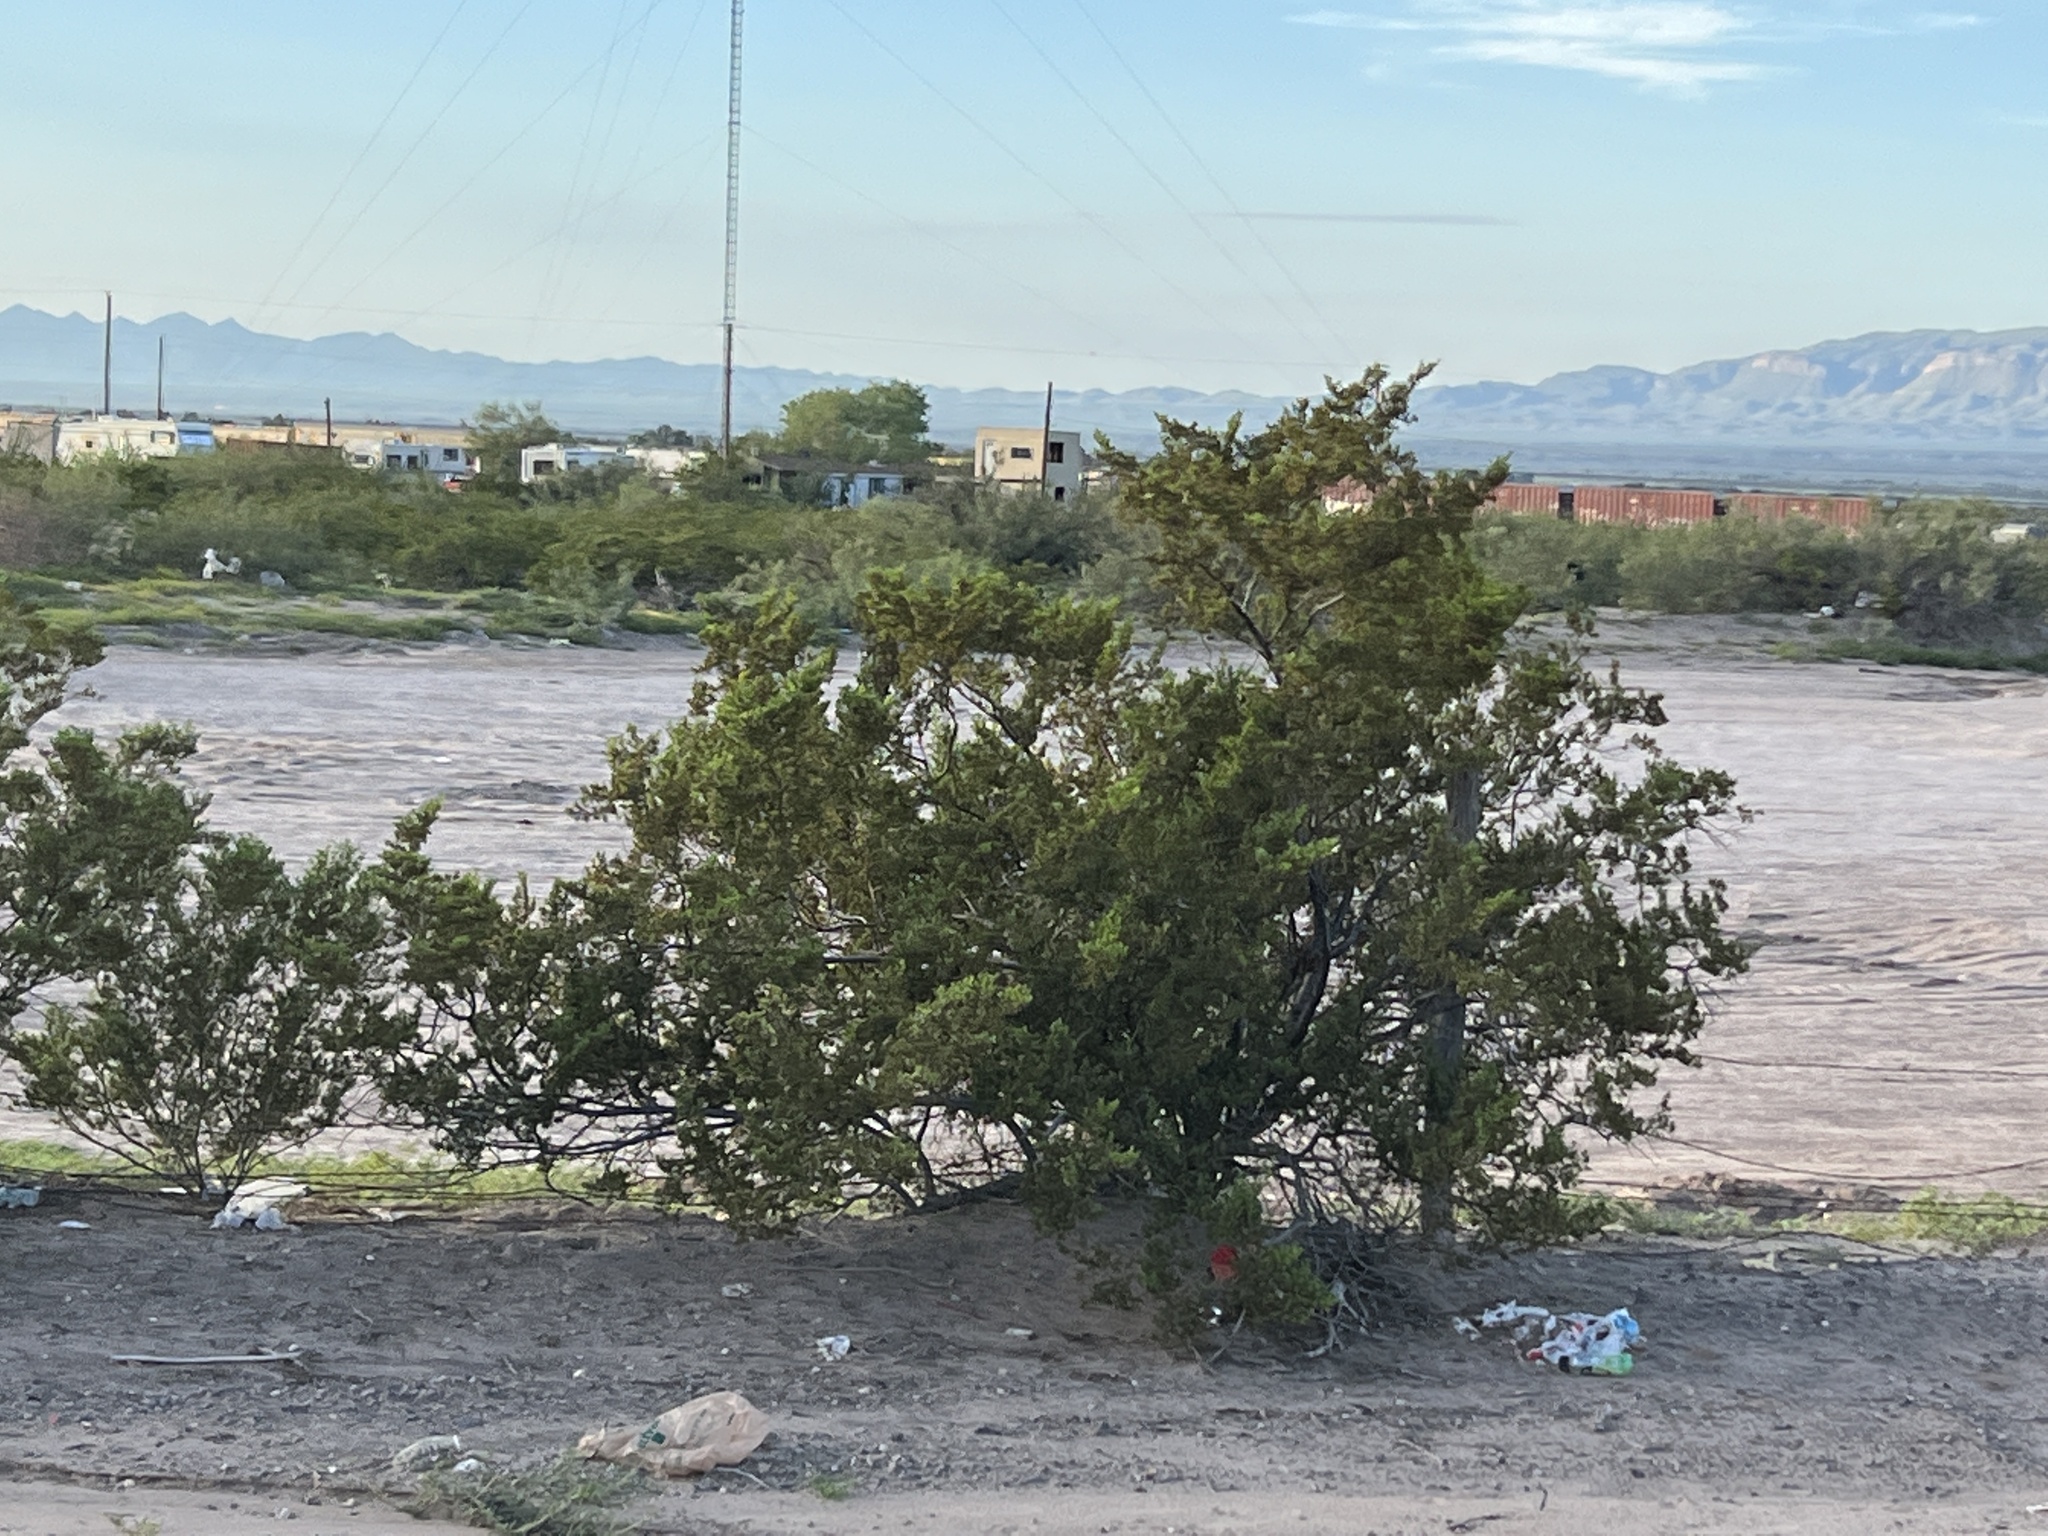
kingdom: Plantae
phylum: Tracheophyta
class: Magnoliopsida
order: Zygophyllales
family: Zygophyllaceae
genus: Larrea
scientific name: Larrea tridentata
